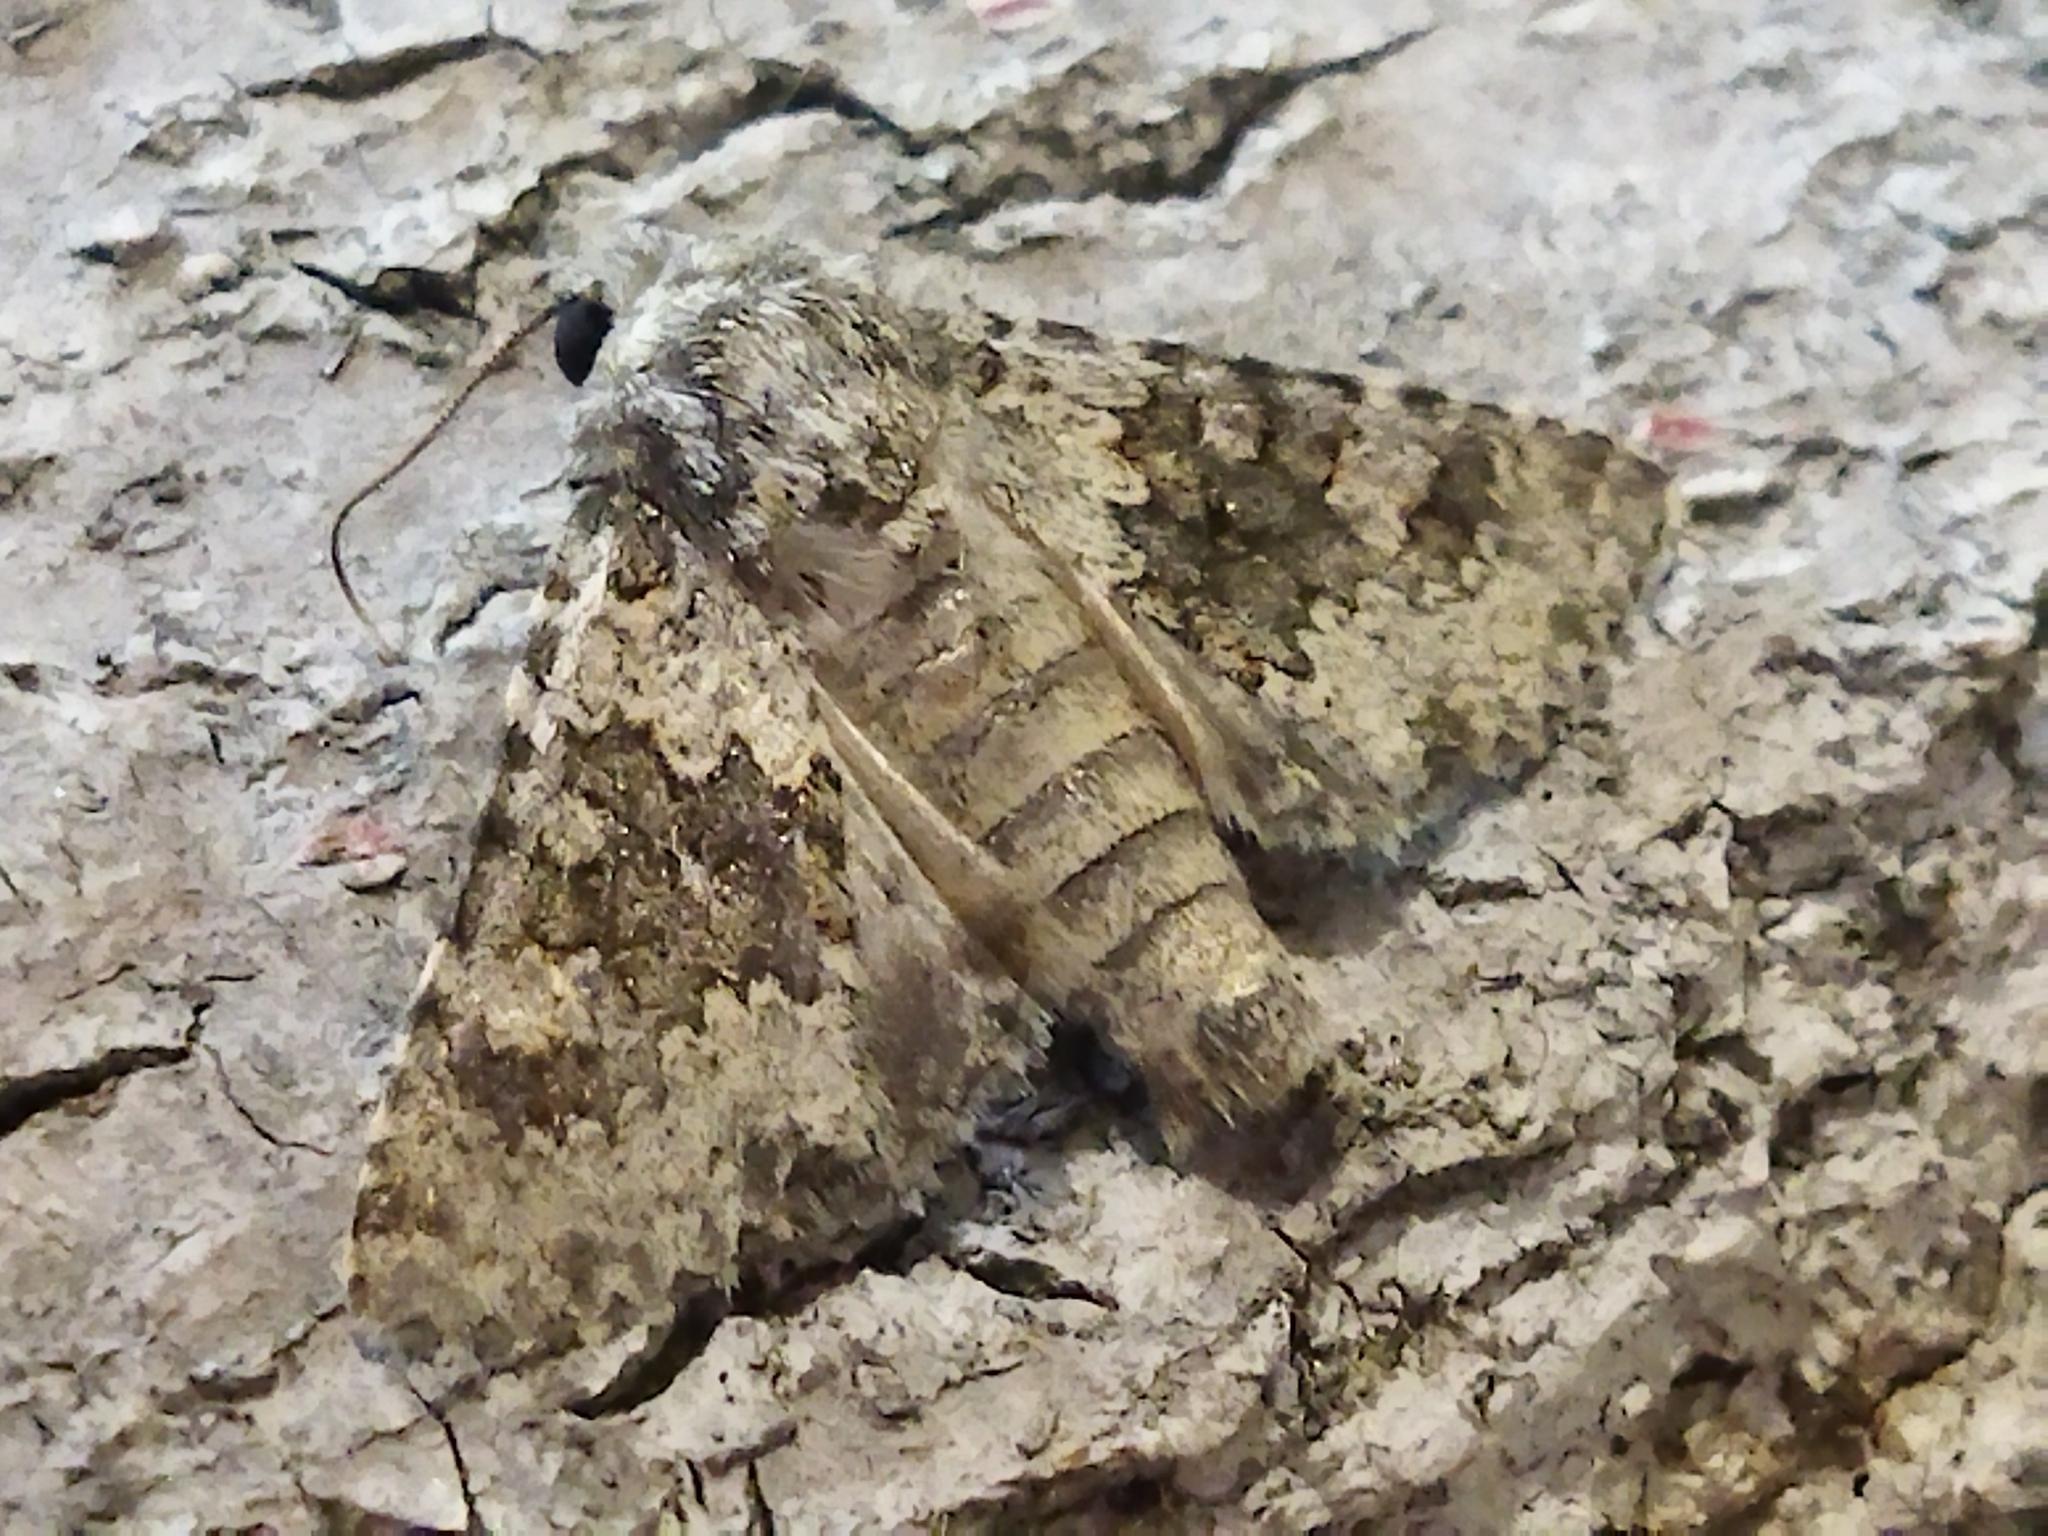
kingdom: Animalia
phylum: Arthropoda
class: Insecta
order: Lepidoptera
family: Noctuidae
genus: Hecatera
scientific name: Hecatera dysodea
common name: Small ranunculus
